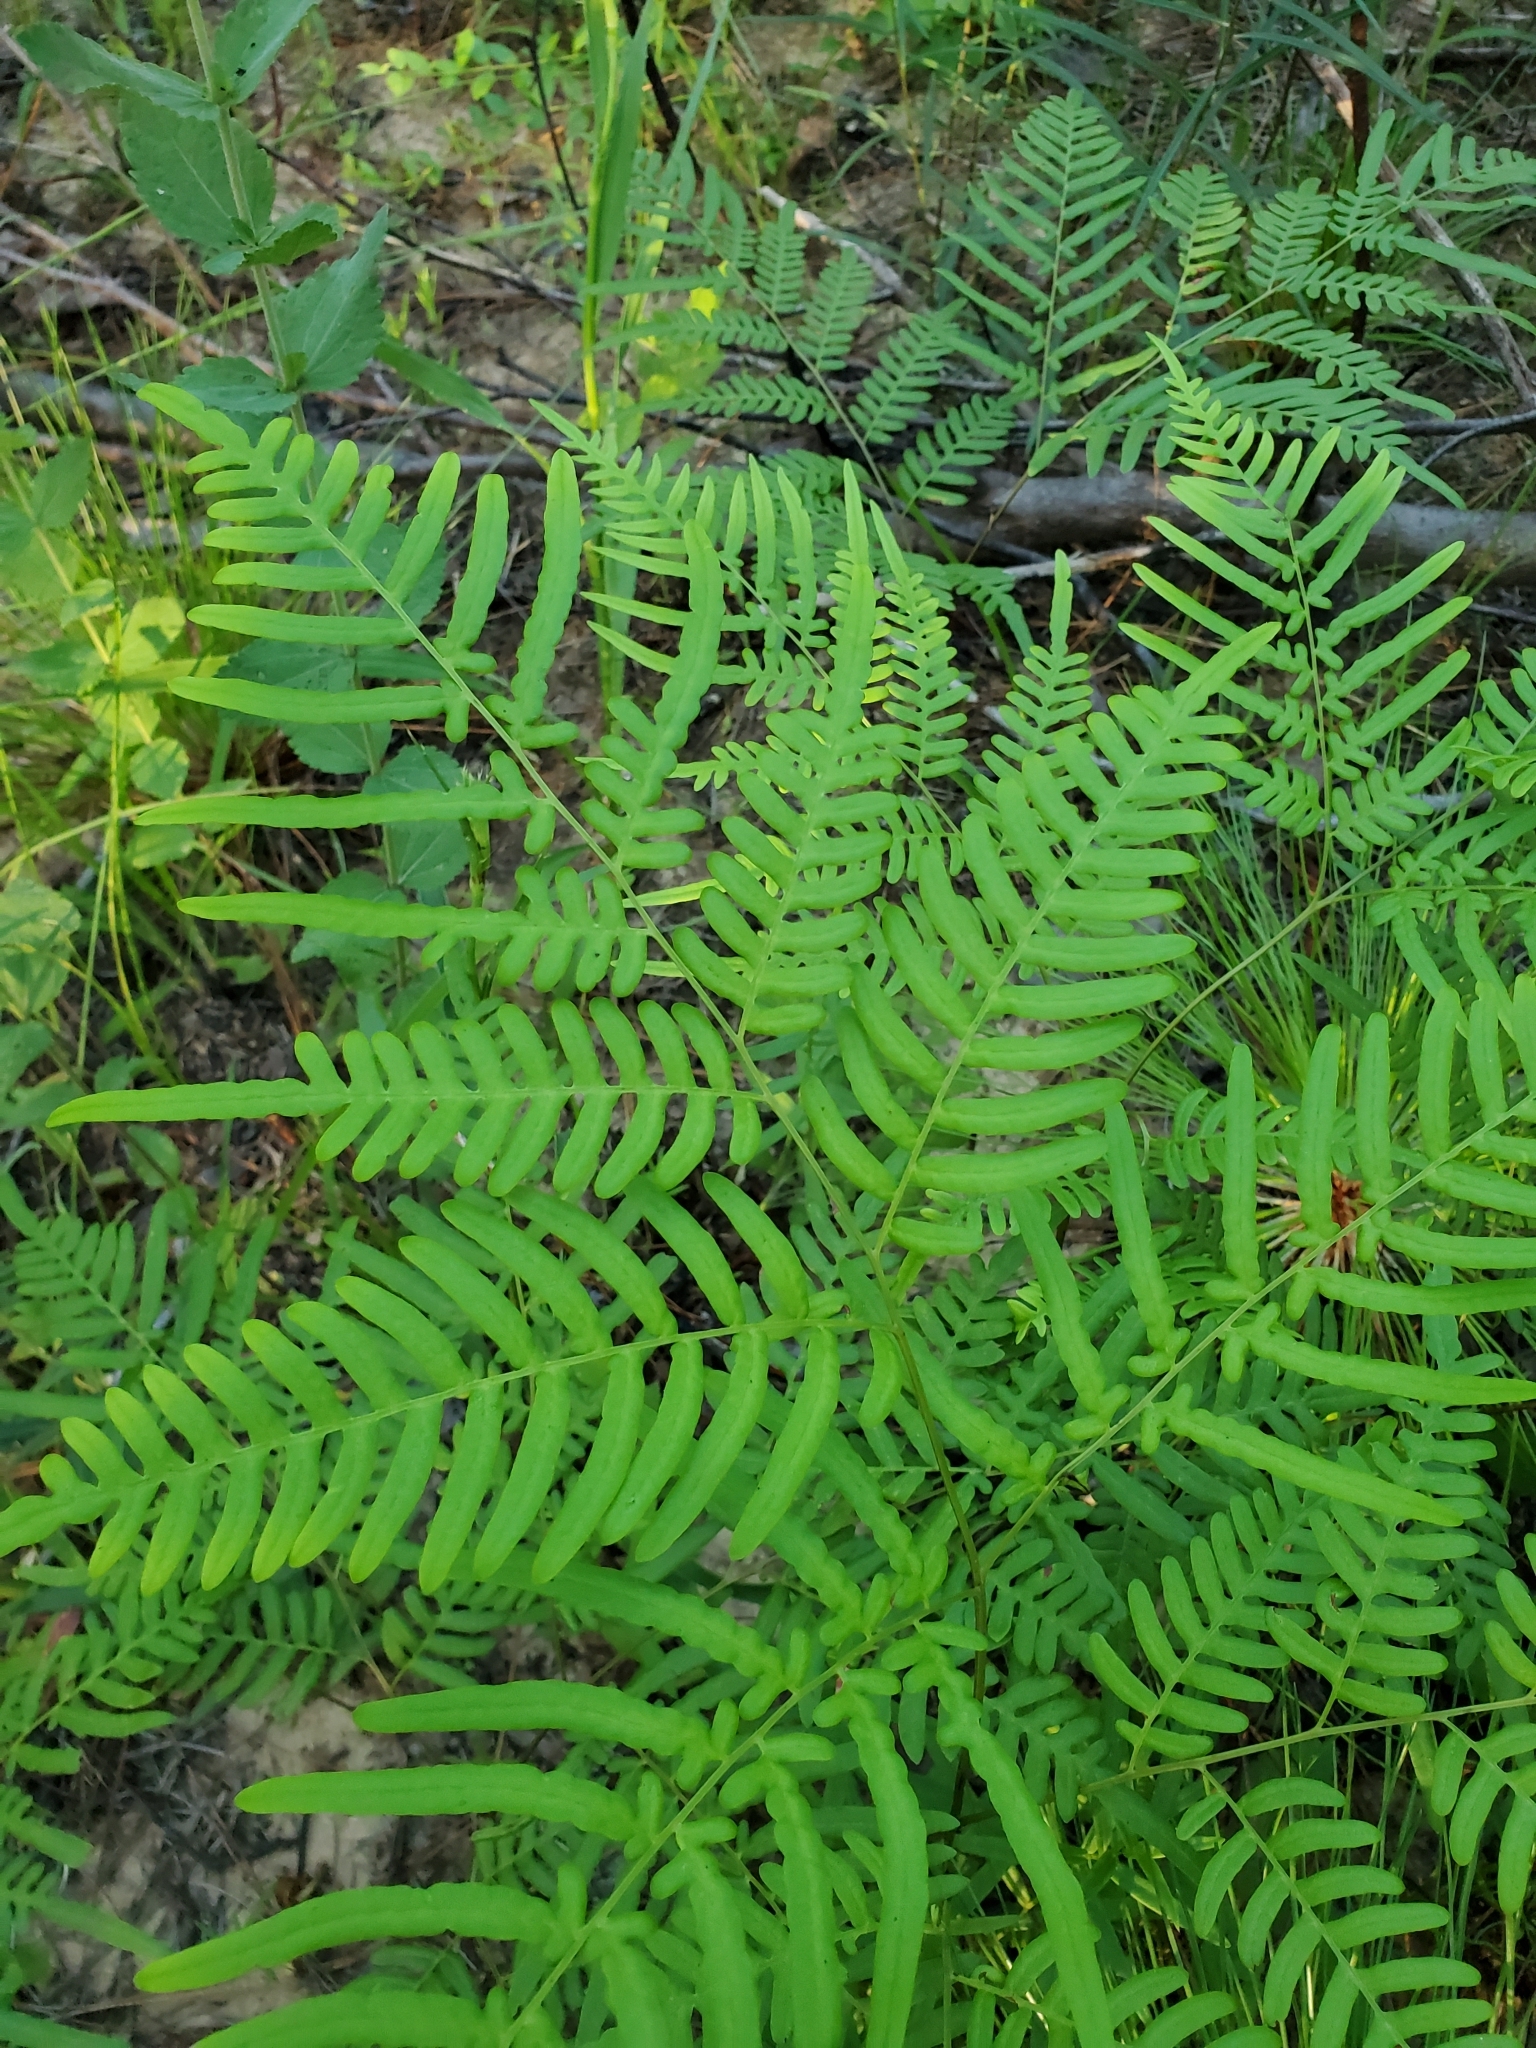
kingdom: Plantae
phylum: Tracheophyta
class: Polypodiopsida
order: Polypodiales
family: Dennstaedtiaceae
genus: Pteridium
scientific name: Pteridium aquilinum
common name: Bracken
